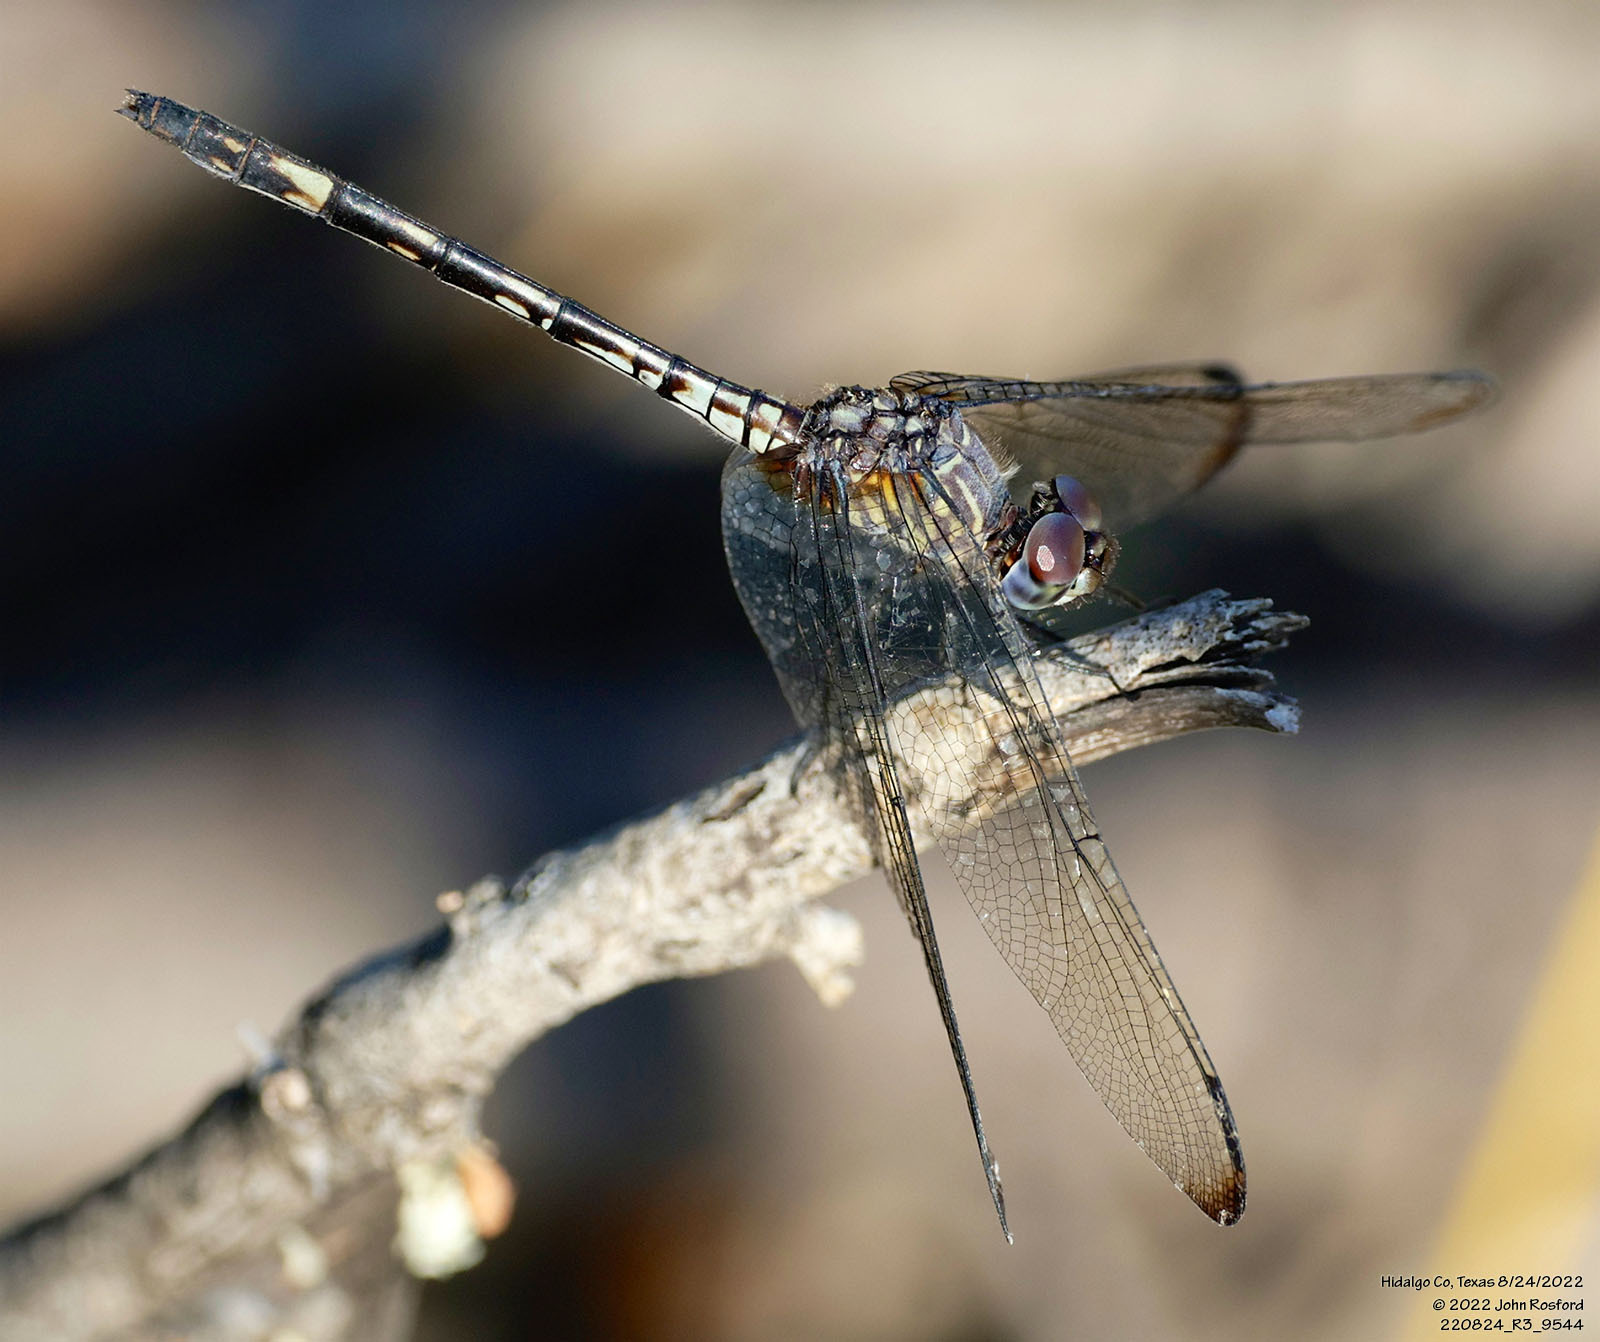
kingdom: Animalia
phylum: Arthropoda
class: Insecta
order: Odonata
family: Libellulidae
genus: Dythemis
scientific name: Dythemis nigrescens
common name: Black setwing
